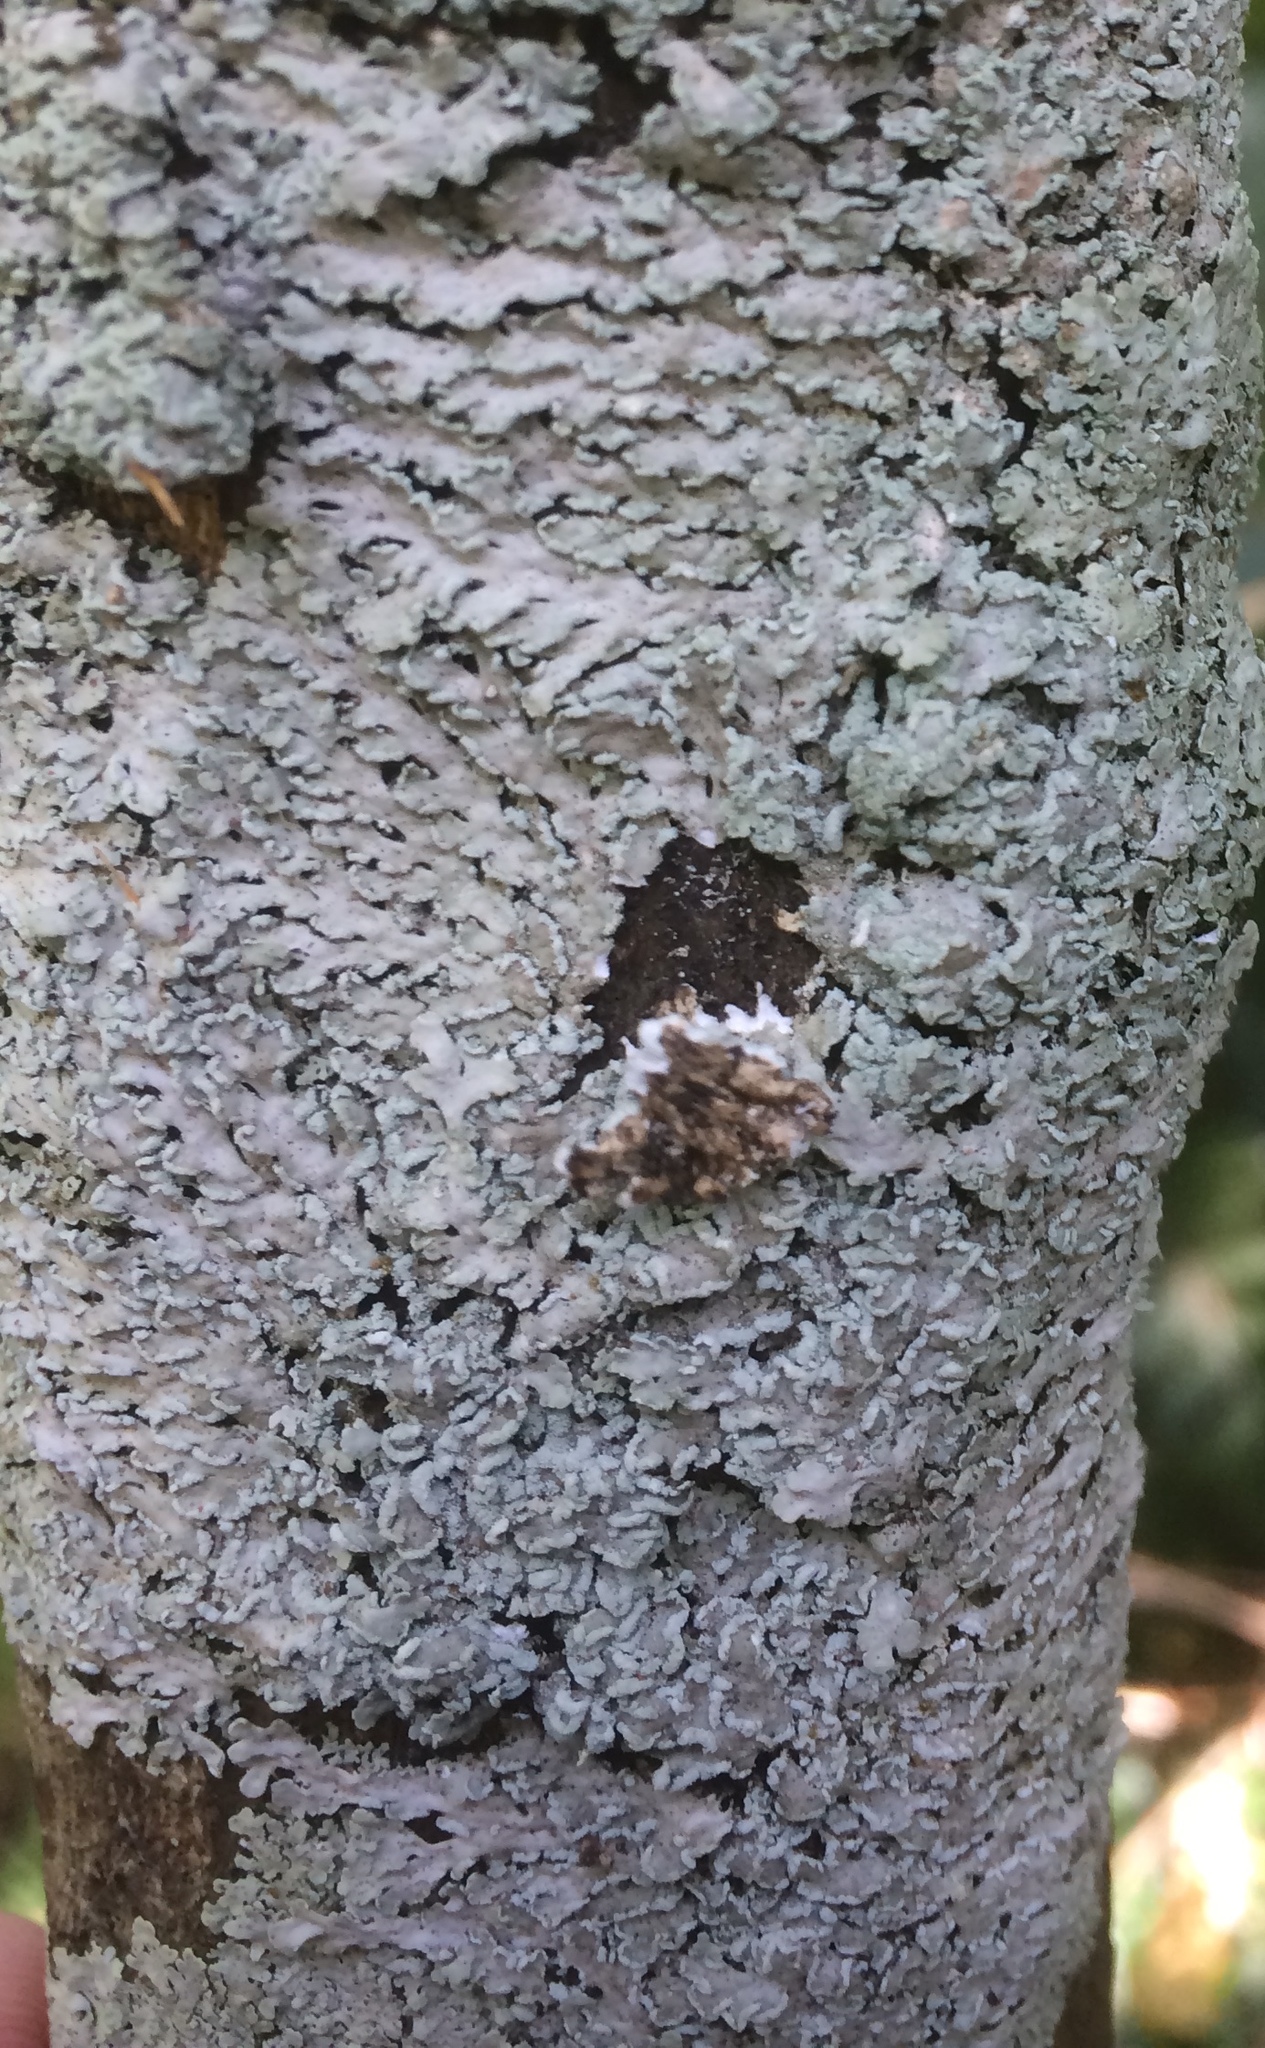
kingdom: Fungi
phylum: Ascomycota
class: Lecanoromycetes
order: Caliciales
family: Physciaceae
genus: Heterodermia
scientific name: Heterodermia speciosa
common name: Powdered fringe lichen
